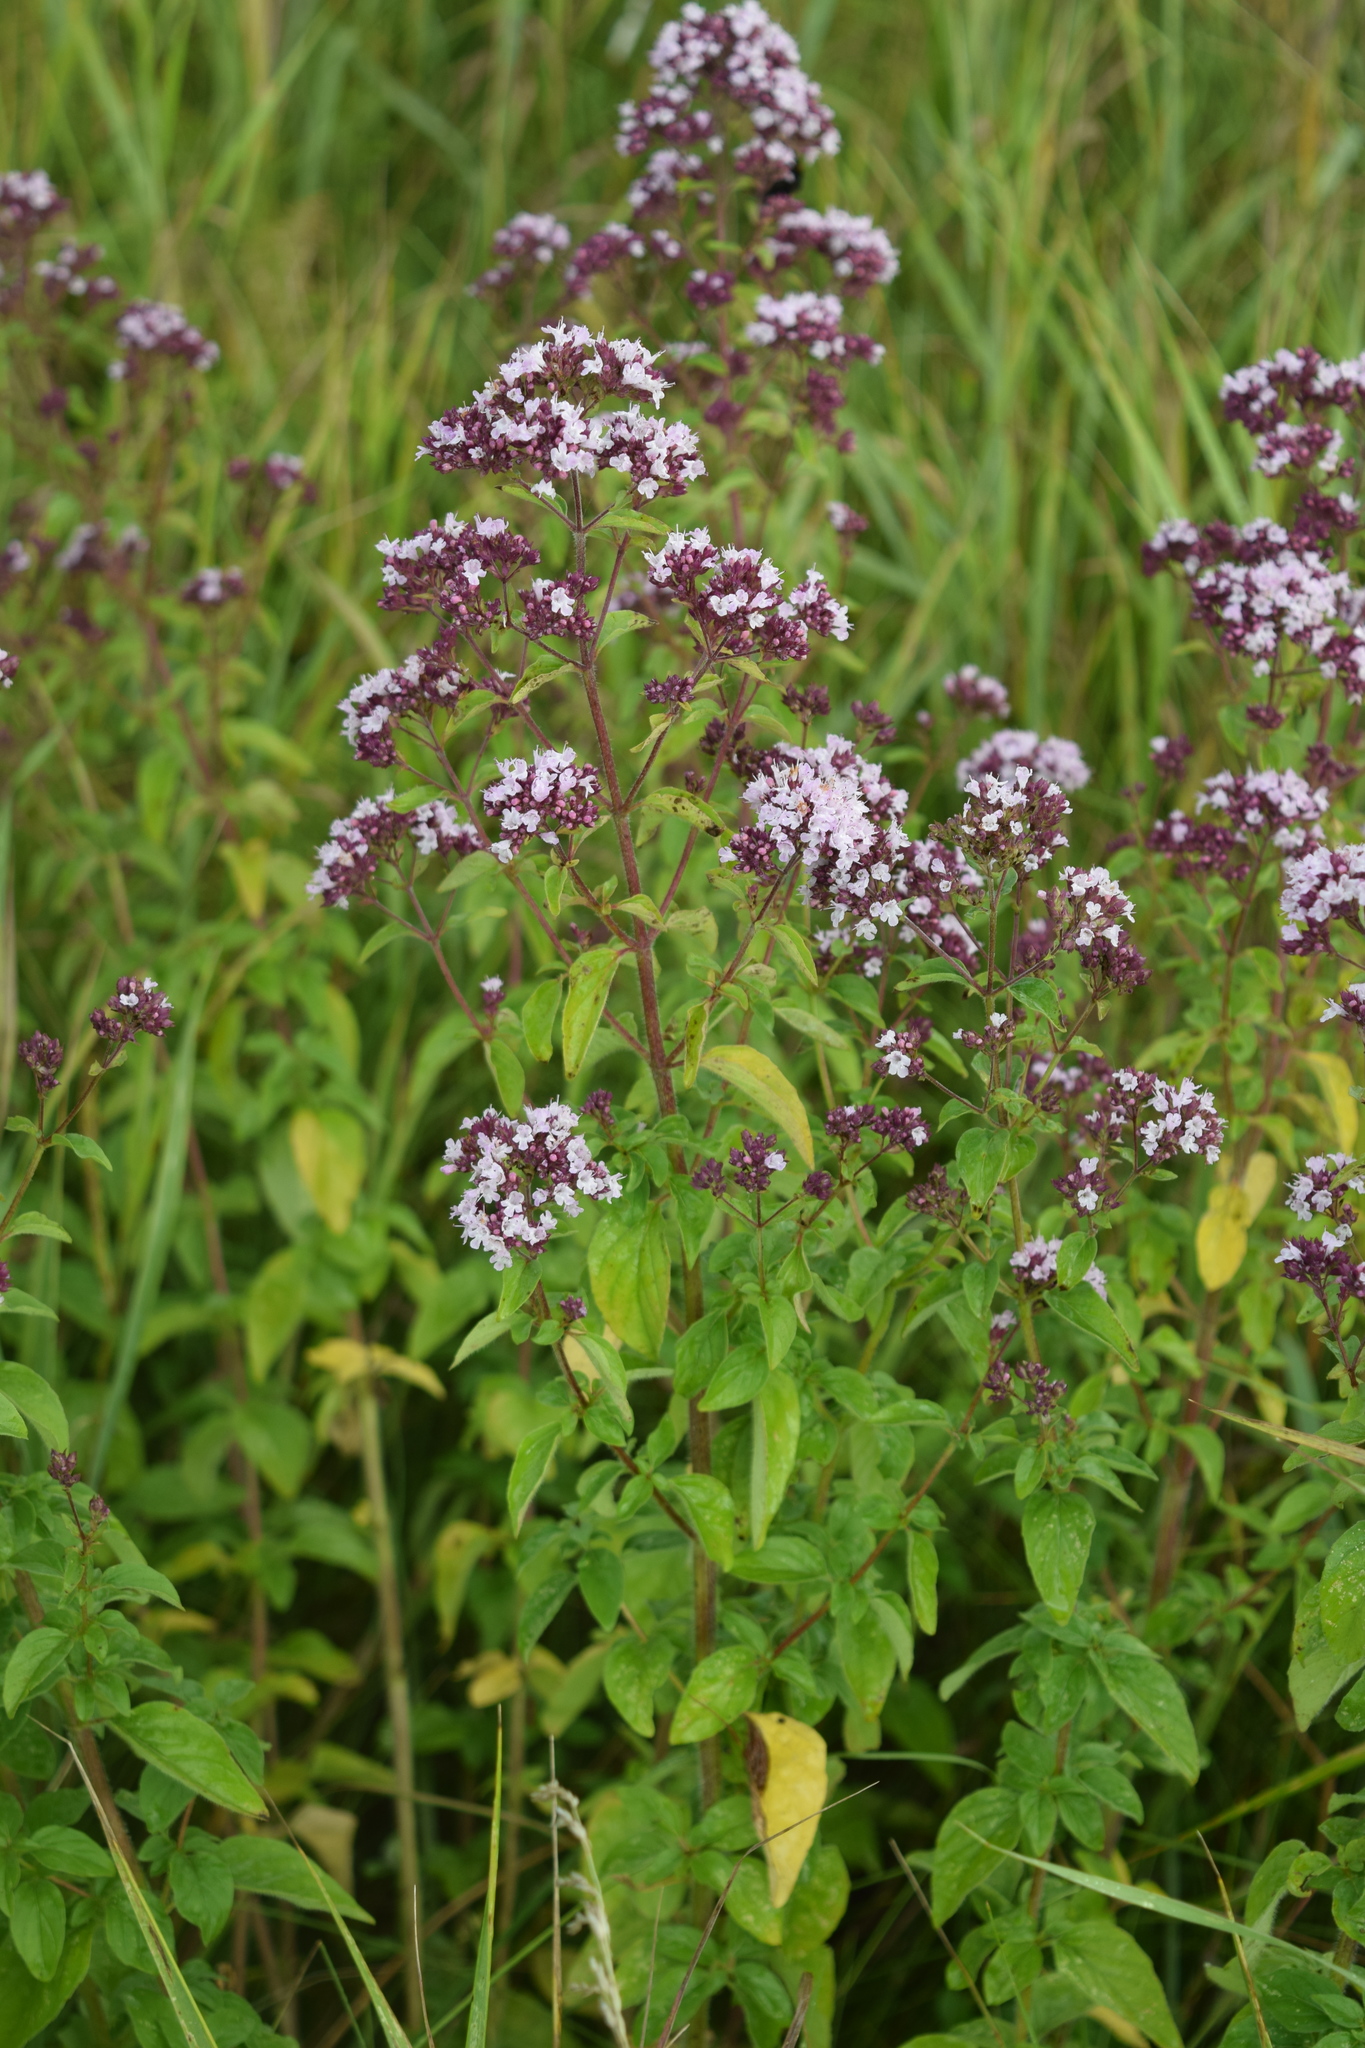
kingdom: Plantae
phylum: Tracheophyta
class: Magnoliopsida
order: Lamiales
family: Lamiaceae
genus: Origanum
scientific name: Origanum vulgare
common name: Wild marjoram
